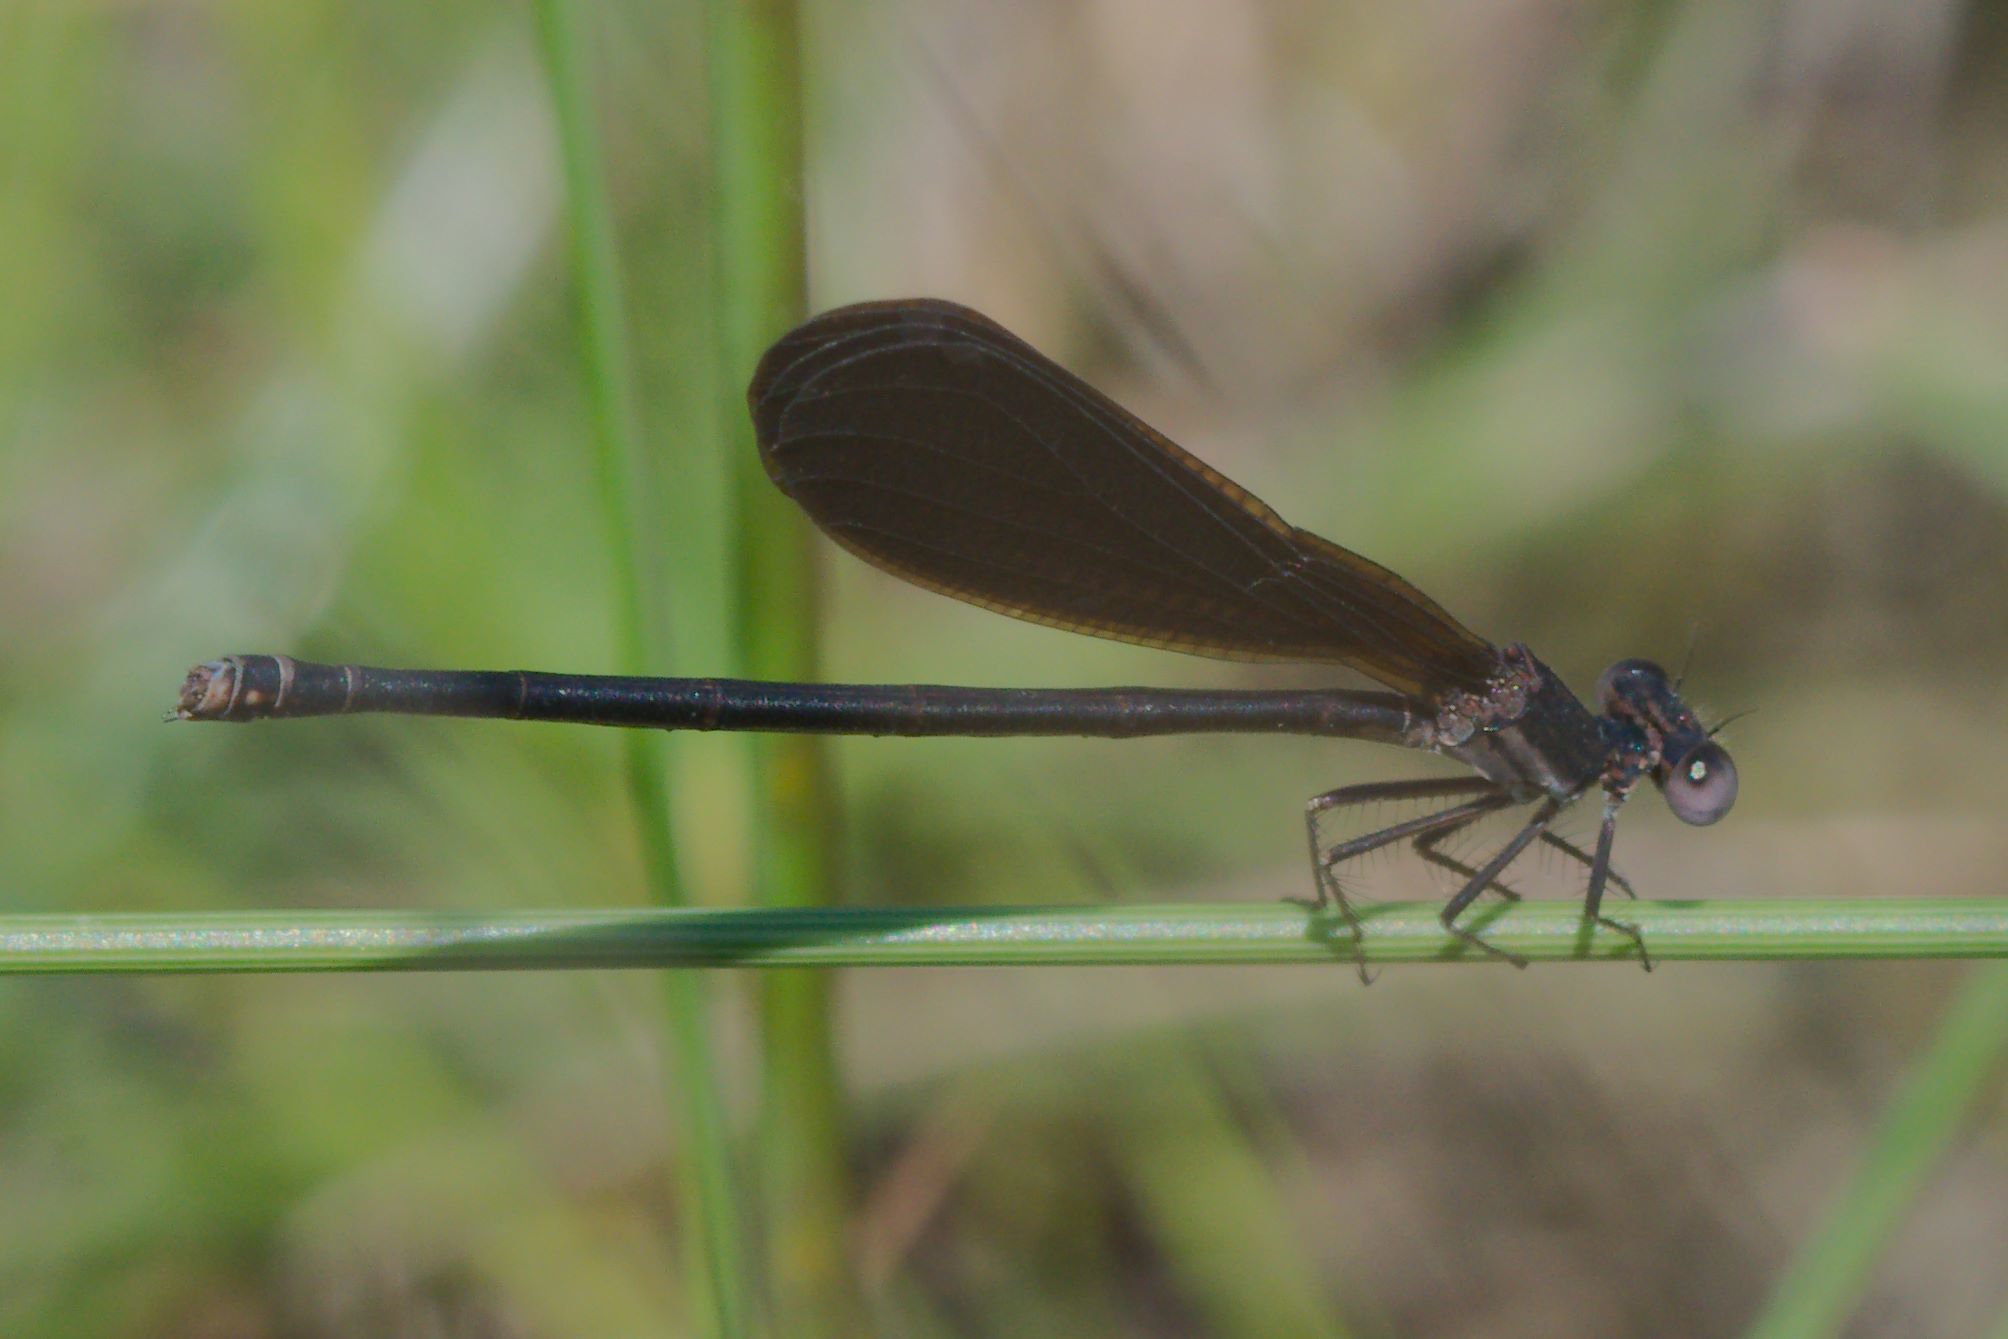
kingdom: Animalia
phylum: Arthropoda
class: Insecta
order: Odonata
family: Coenagrionidae
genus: Argia
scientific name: Argia fumipennis
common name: Variable dancer
